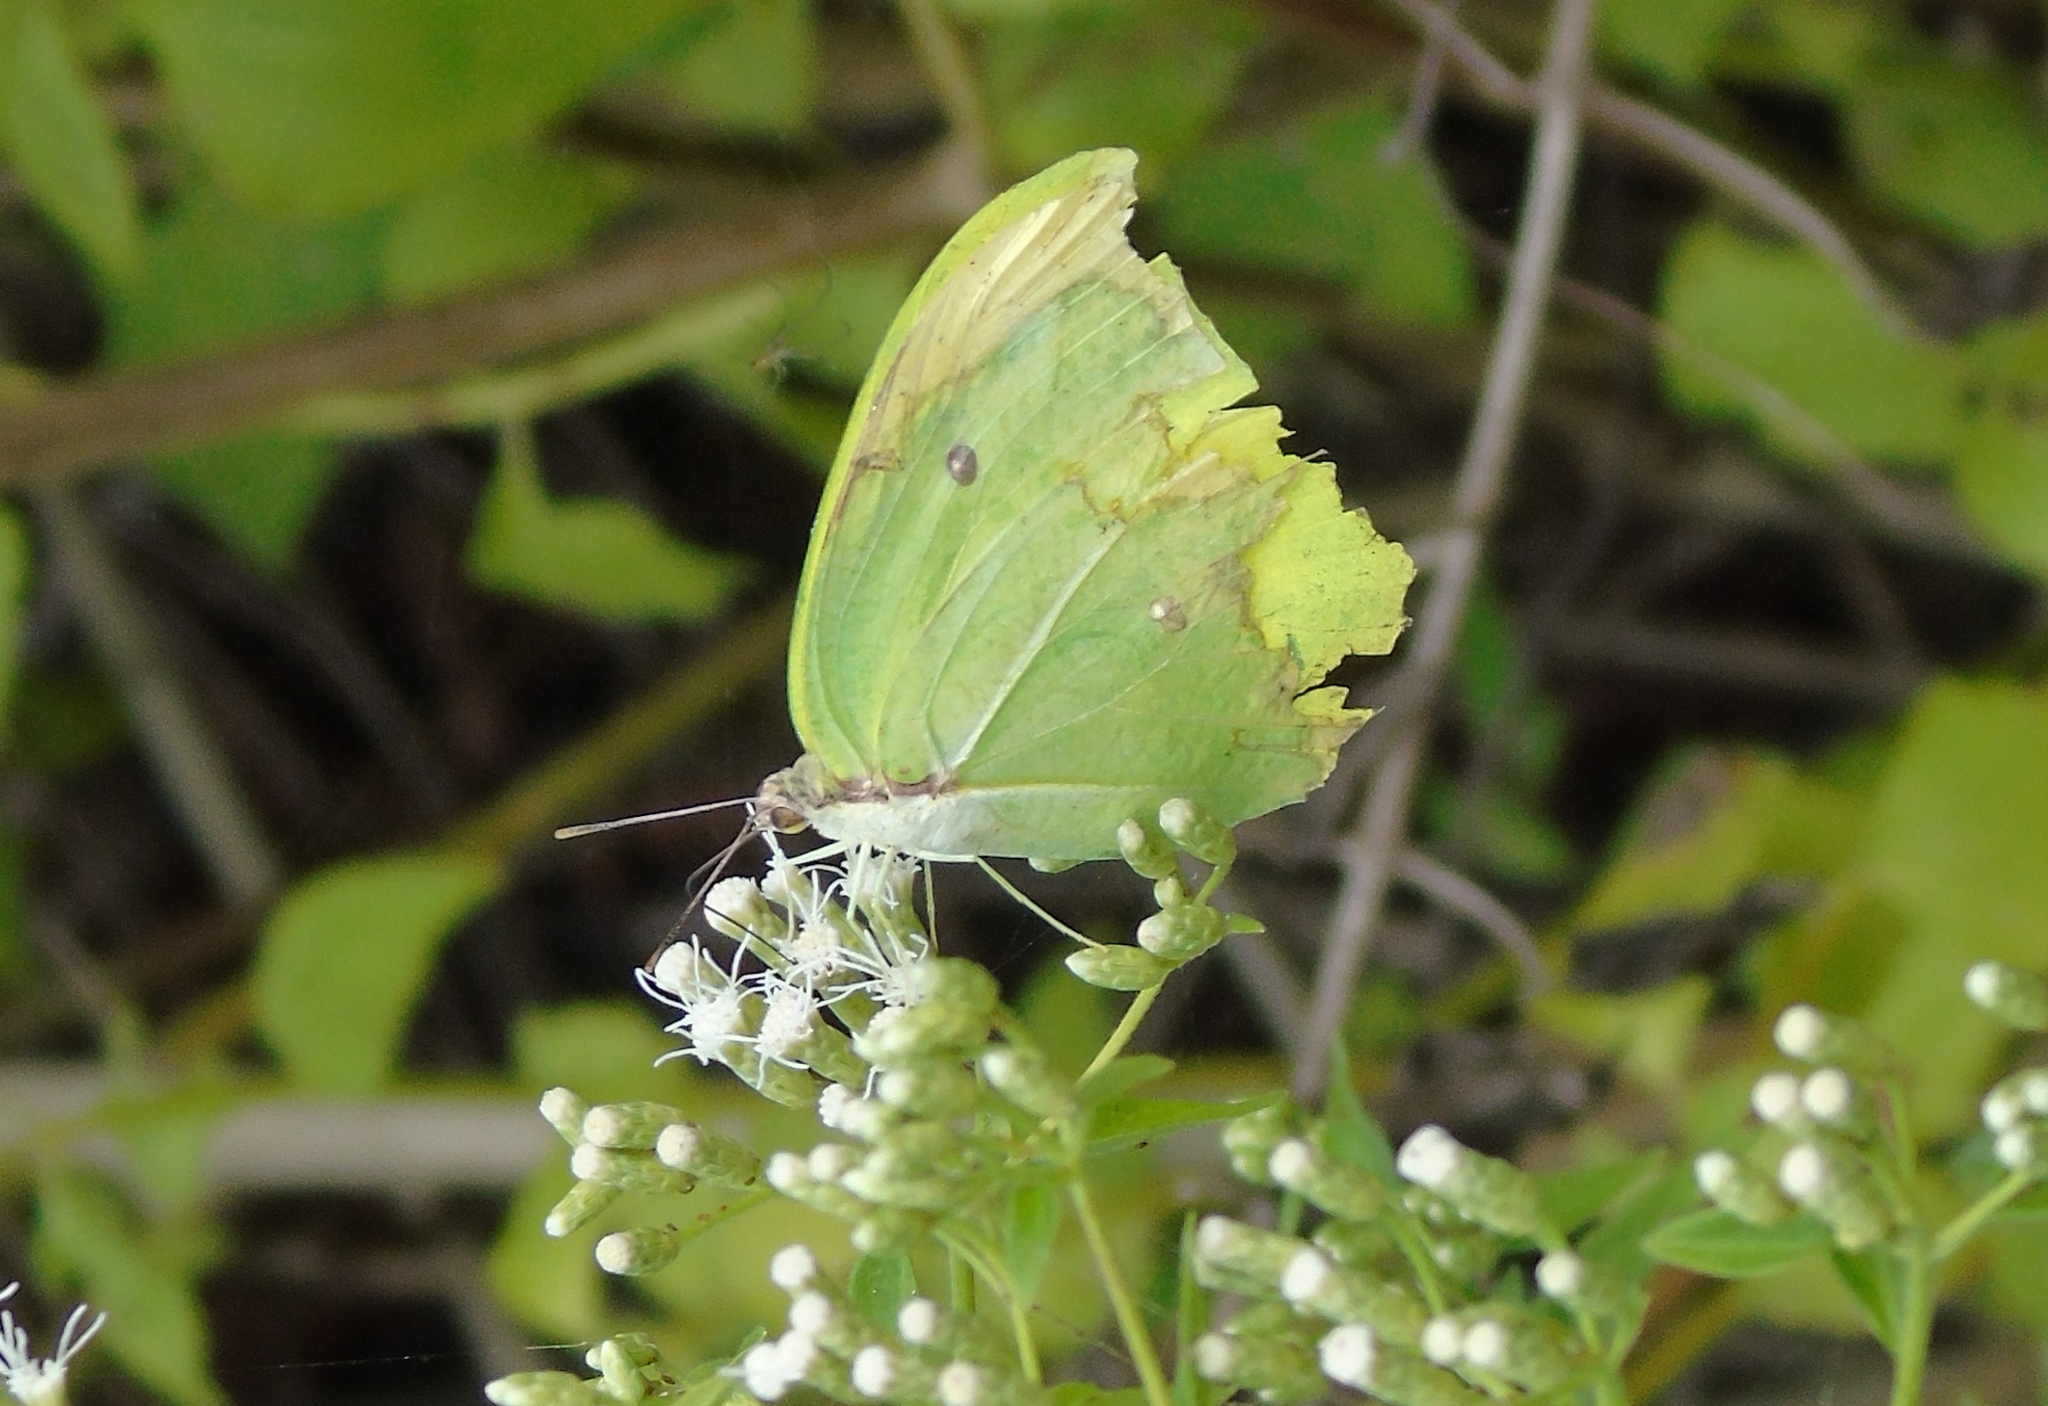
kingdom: Animalia
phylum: Arthropoda
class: Insecta
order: Lepidoptera
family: Pieridae
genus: Anteos
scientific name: Anteos maerula
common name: Angled sulphur
